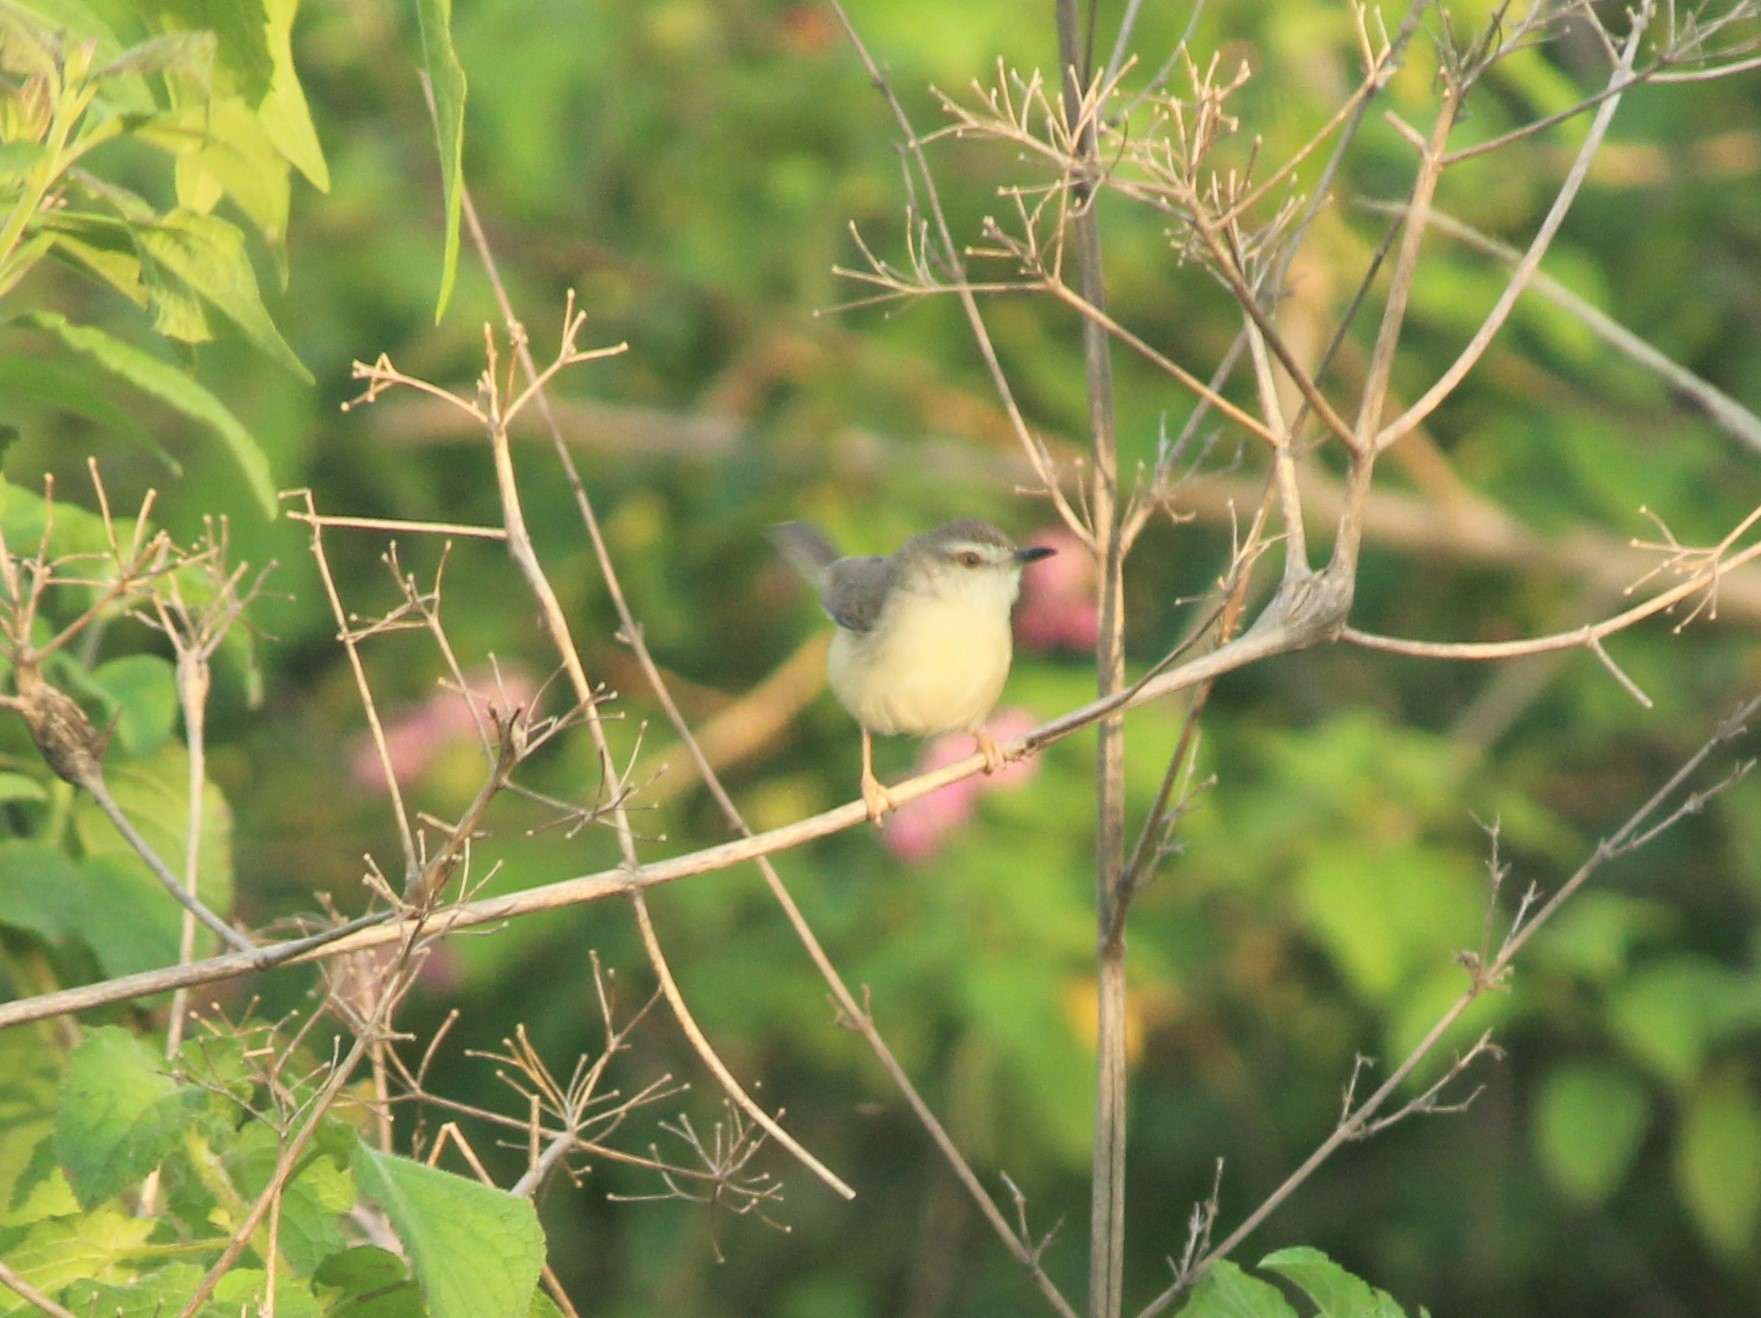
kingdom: Animalia
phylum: Chordata
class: Aves
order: Passeriformes
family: Cisticolidae
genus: Prinia
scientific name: Prinia inornata
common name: Plain prinia
